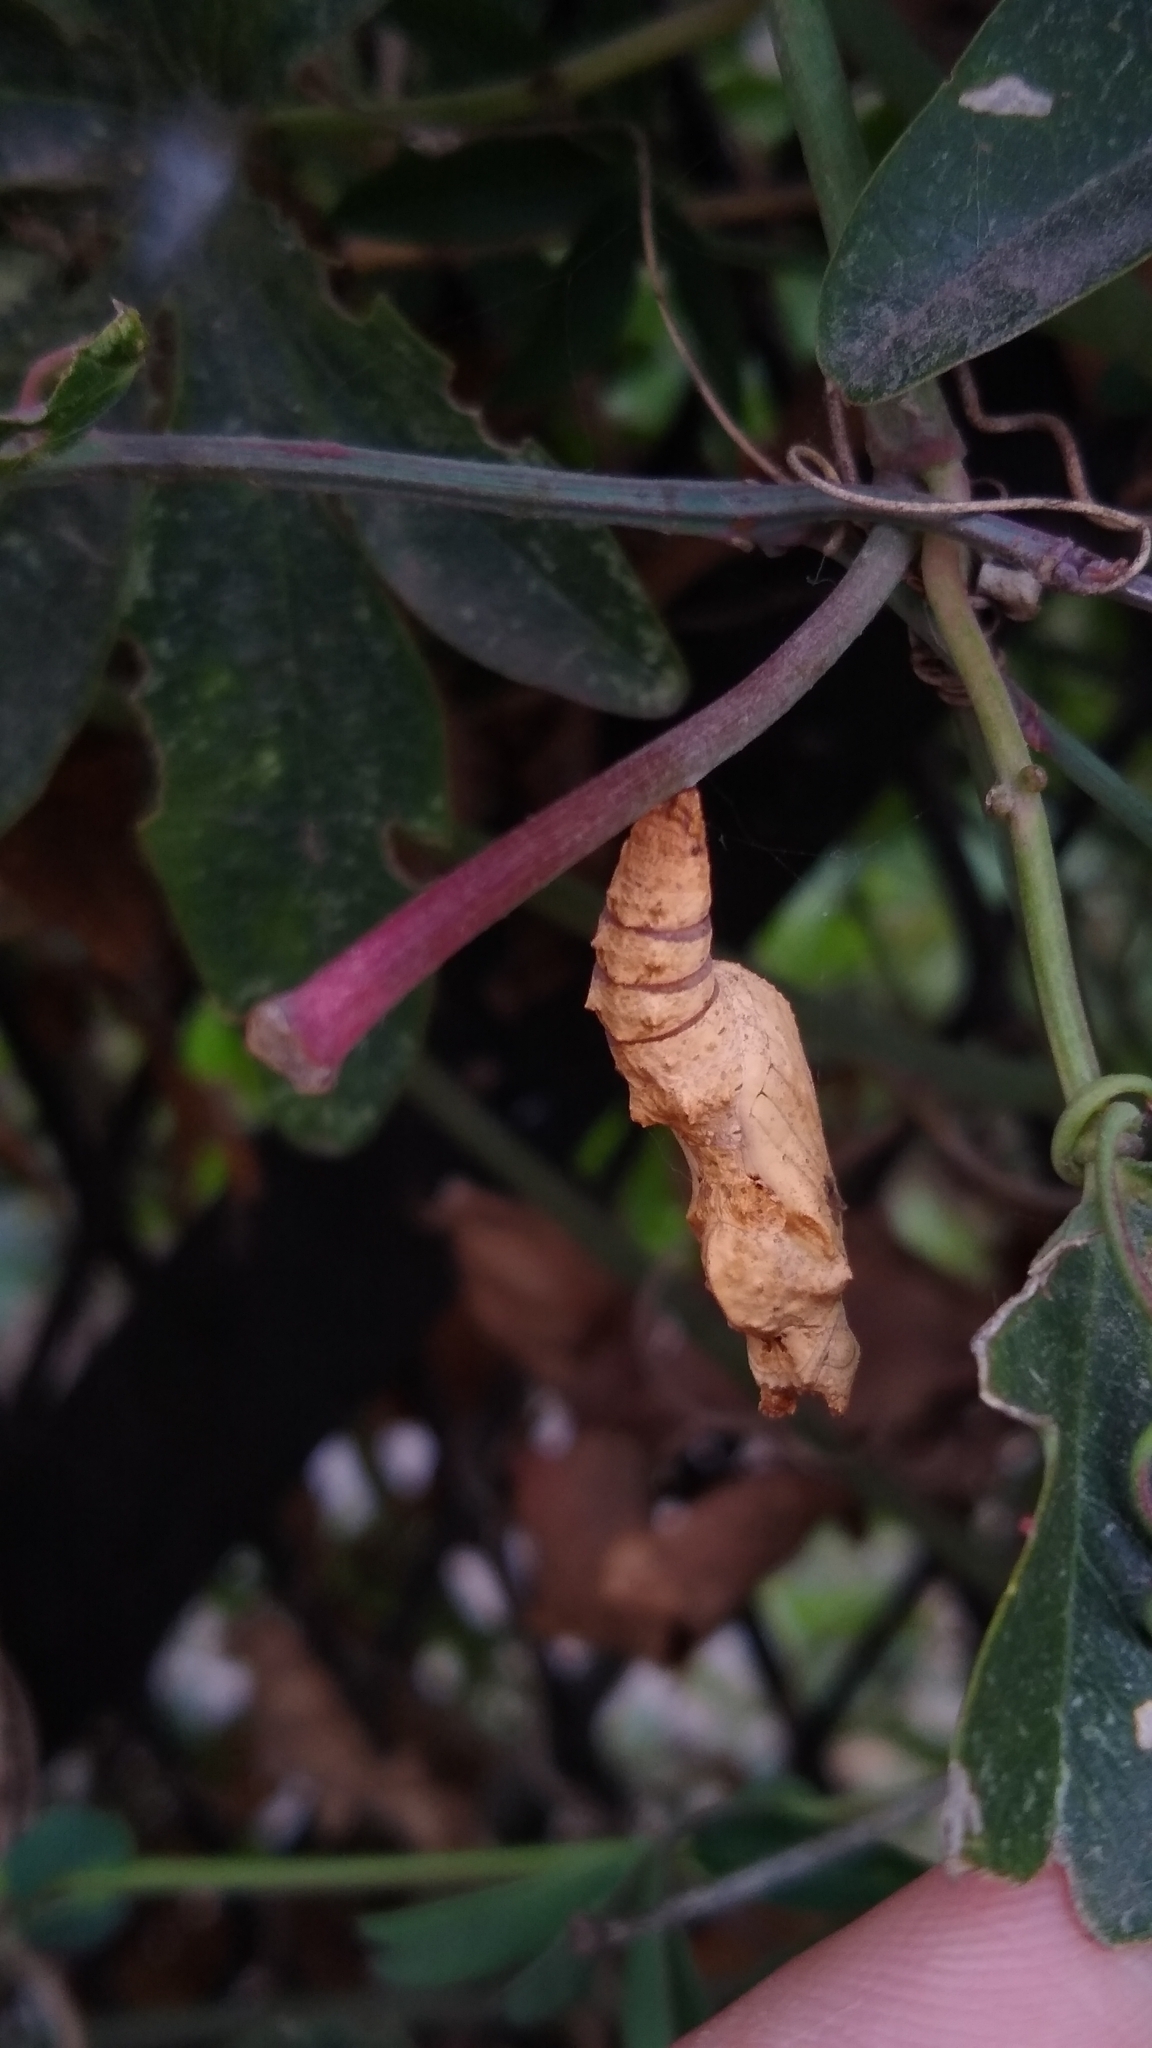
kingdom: Animalia
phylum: Arthropoda
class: Insecta
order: Lepidoptera
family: Nymphalidae
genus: Dione
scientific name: Dione vanillae
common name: Gulf fritillary
